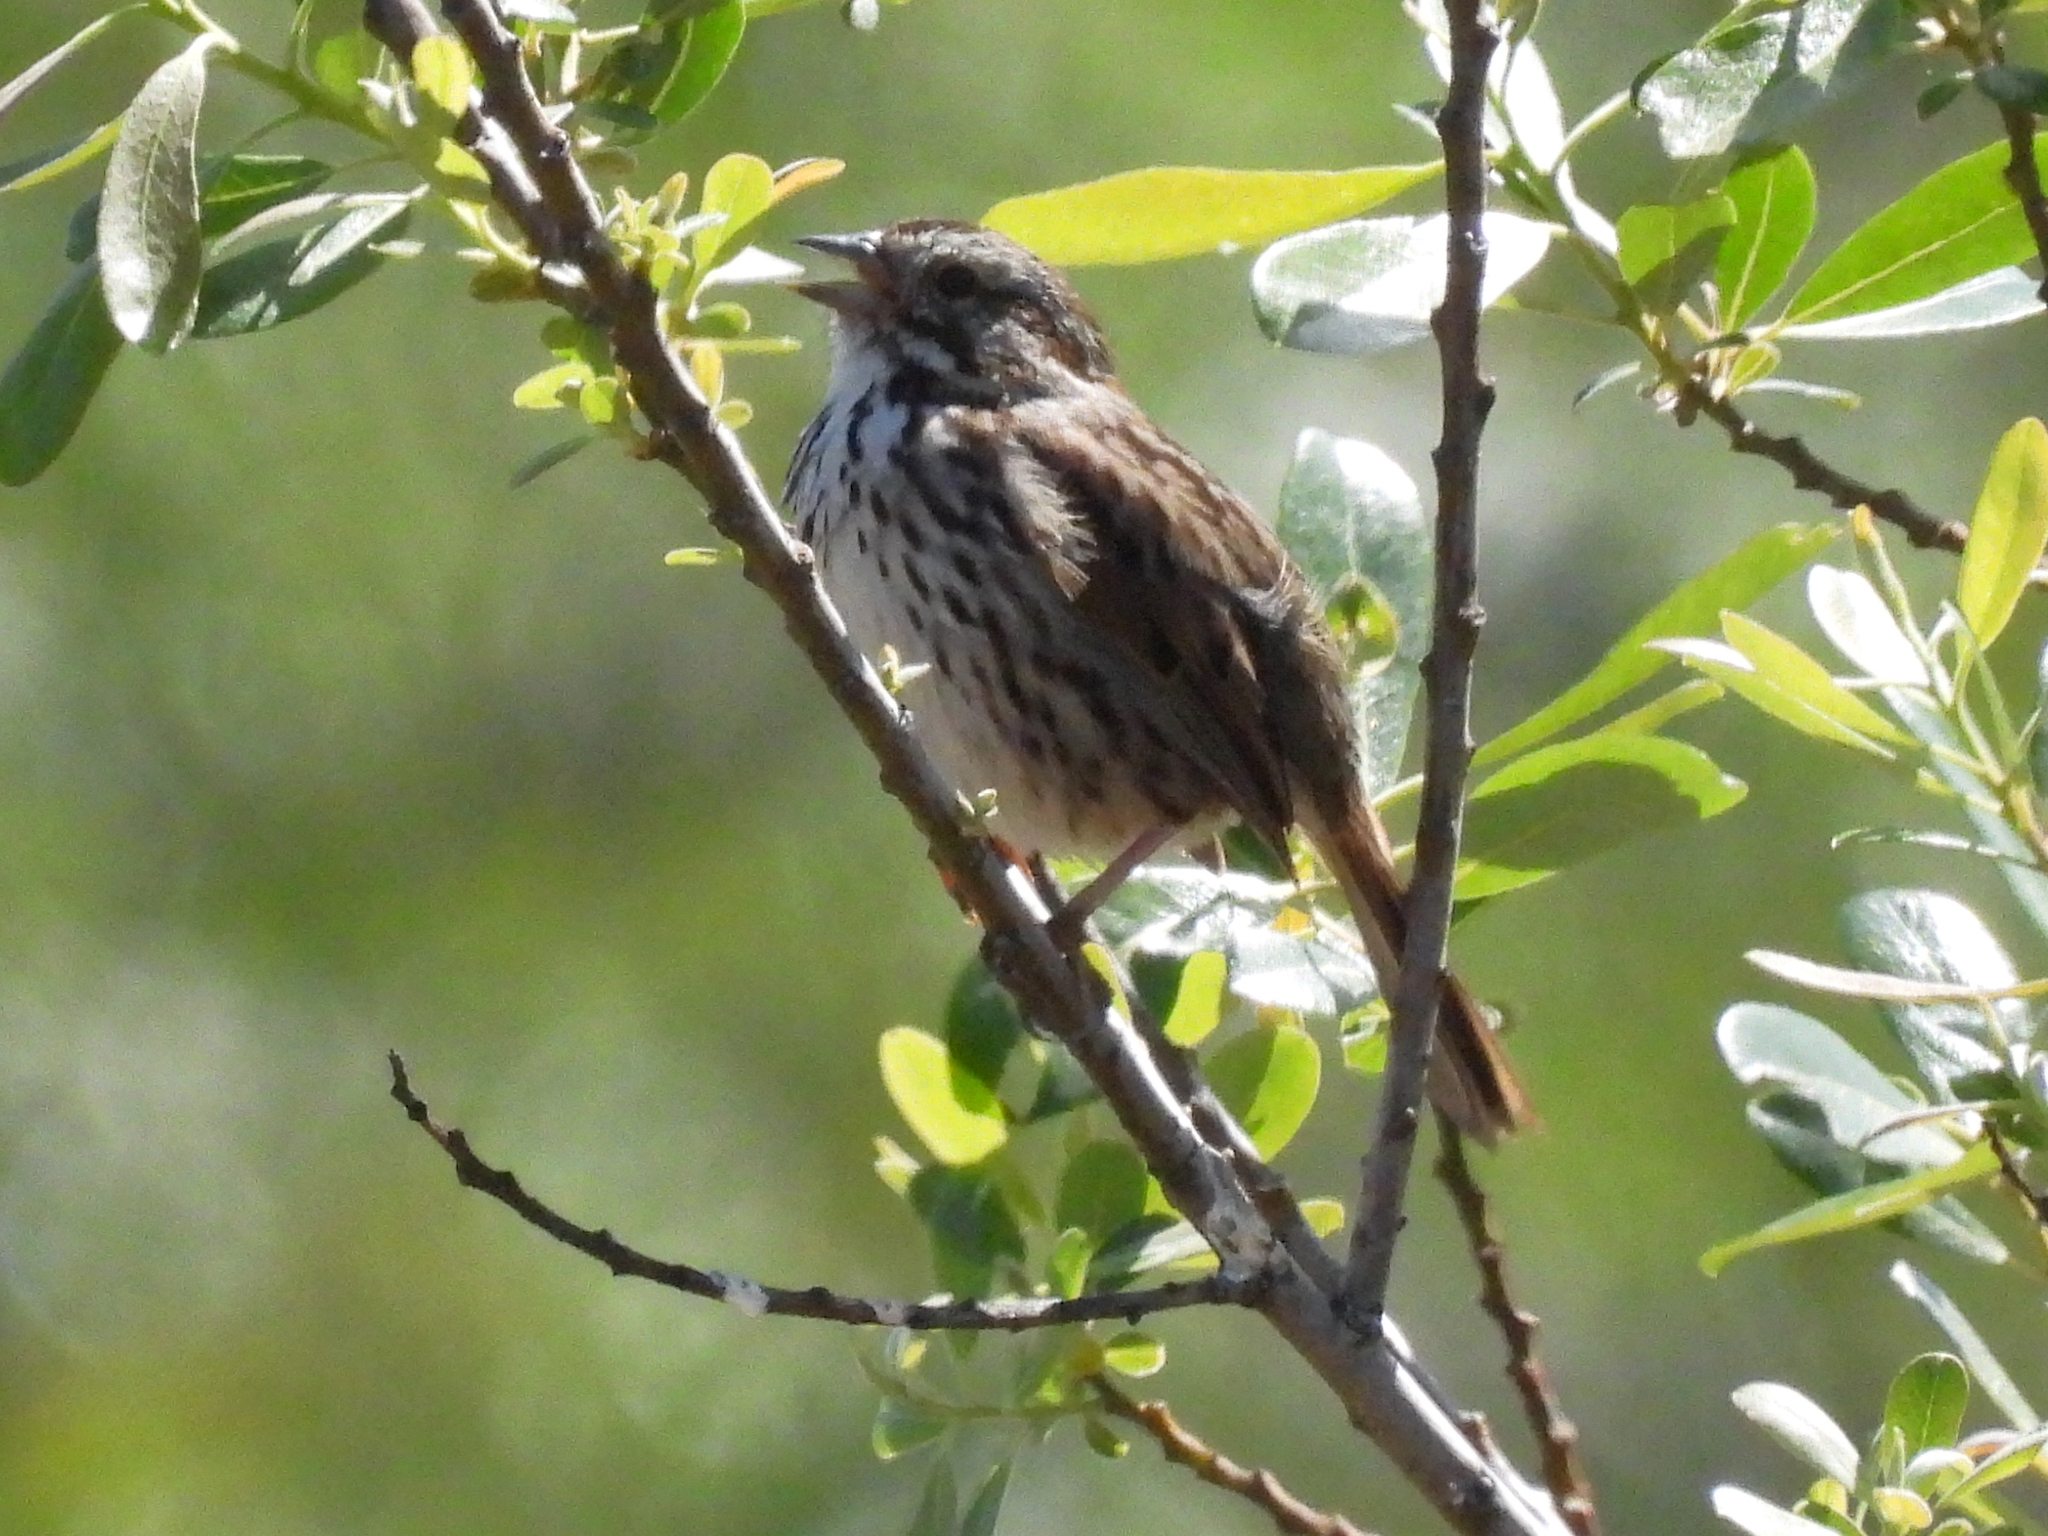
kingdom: Animalia
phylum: Chordata
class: Aves
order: Passeriformes
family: Passerellidae
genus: Melospiza
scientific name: Melospiza melodia
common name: Song sparrow
